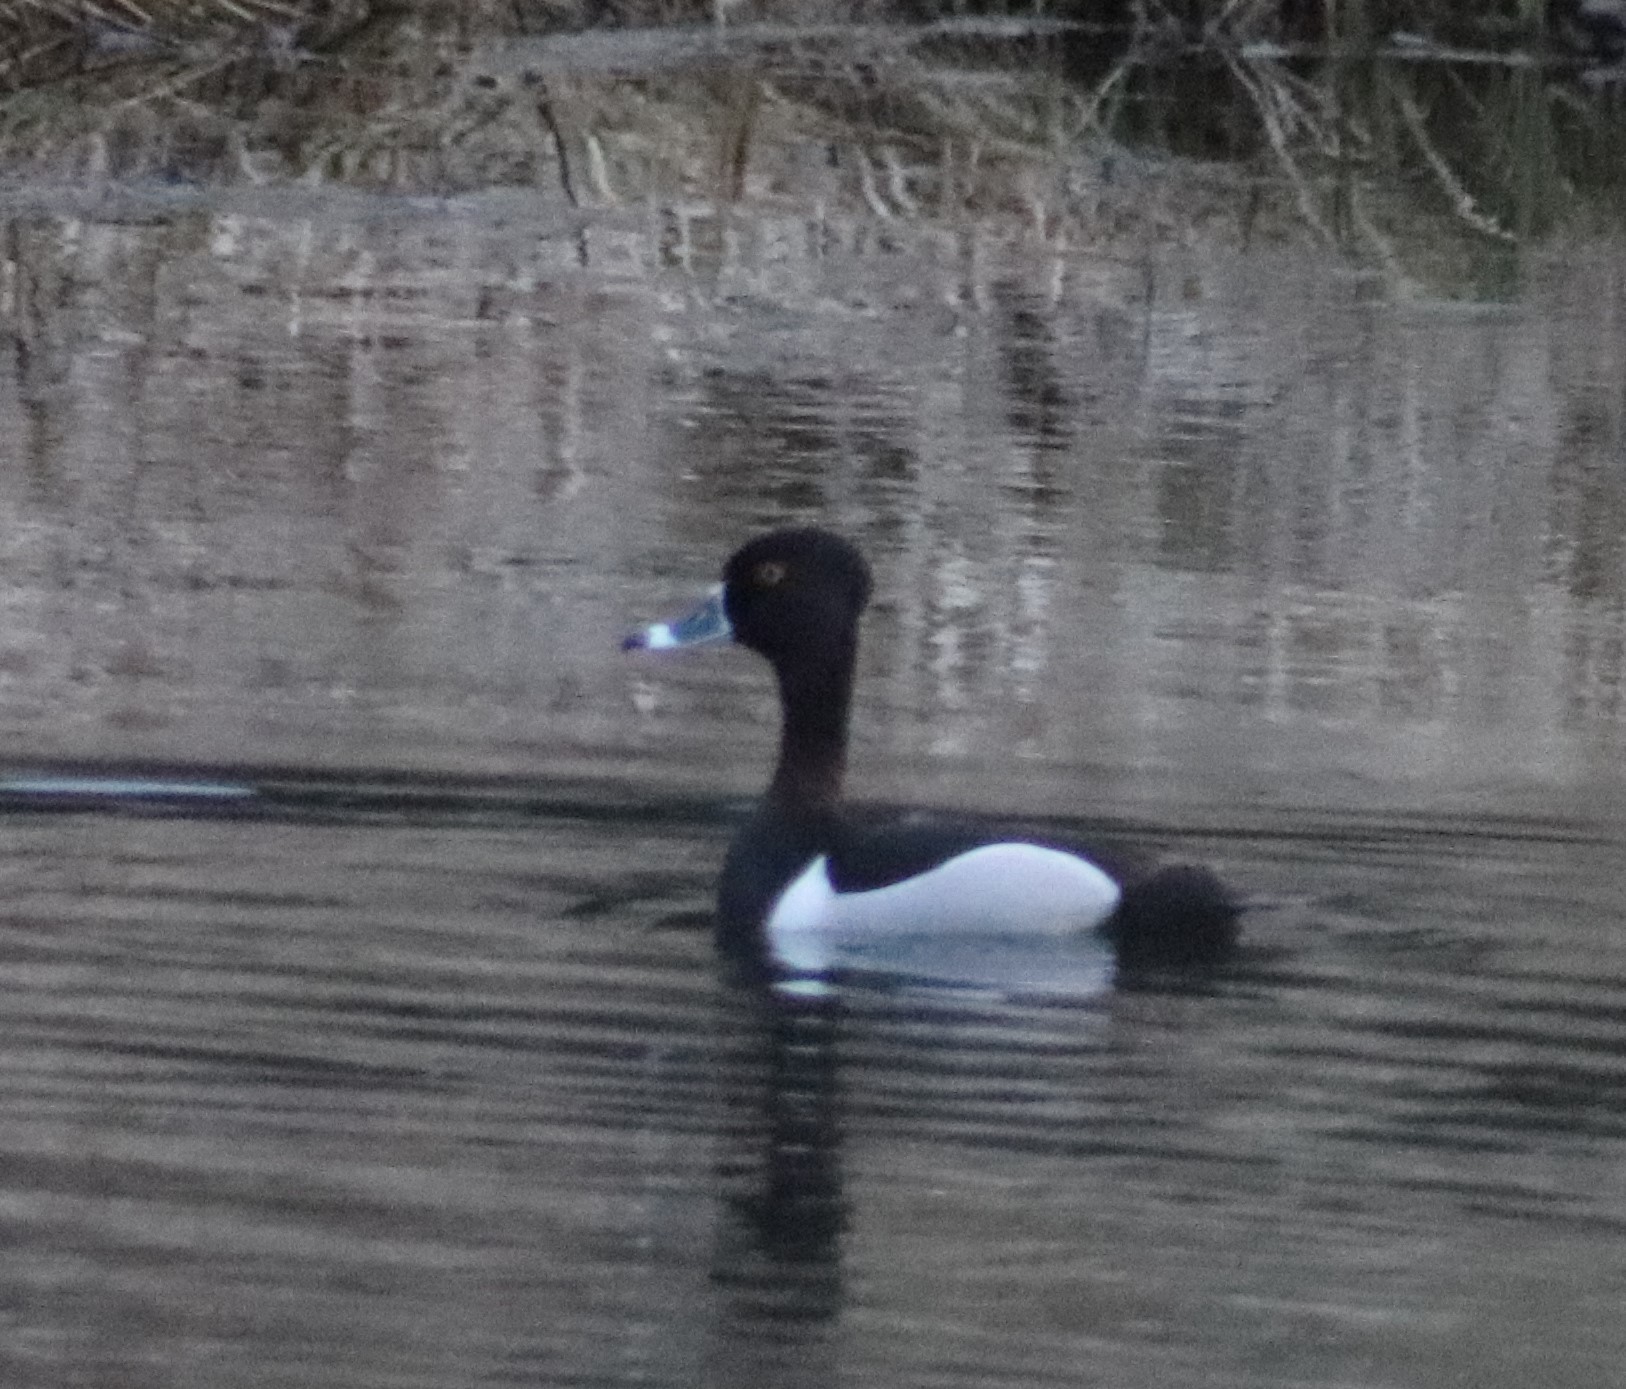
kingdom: Animalia
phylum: Chordata
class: Aves
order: Anseriformes
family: Anatidae
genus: Aythya
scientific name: Aythya collaris
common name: Ring-necked duck
